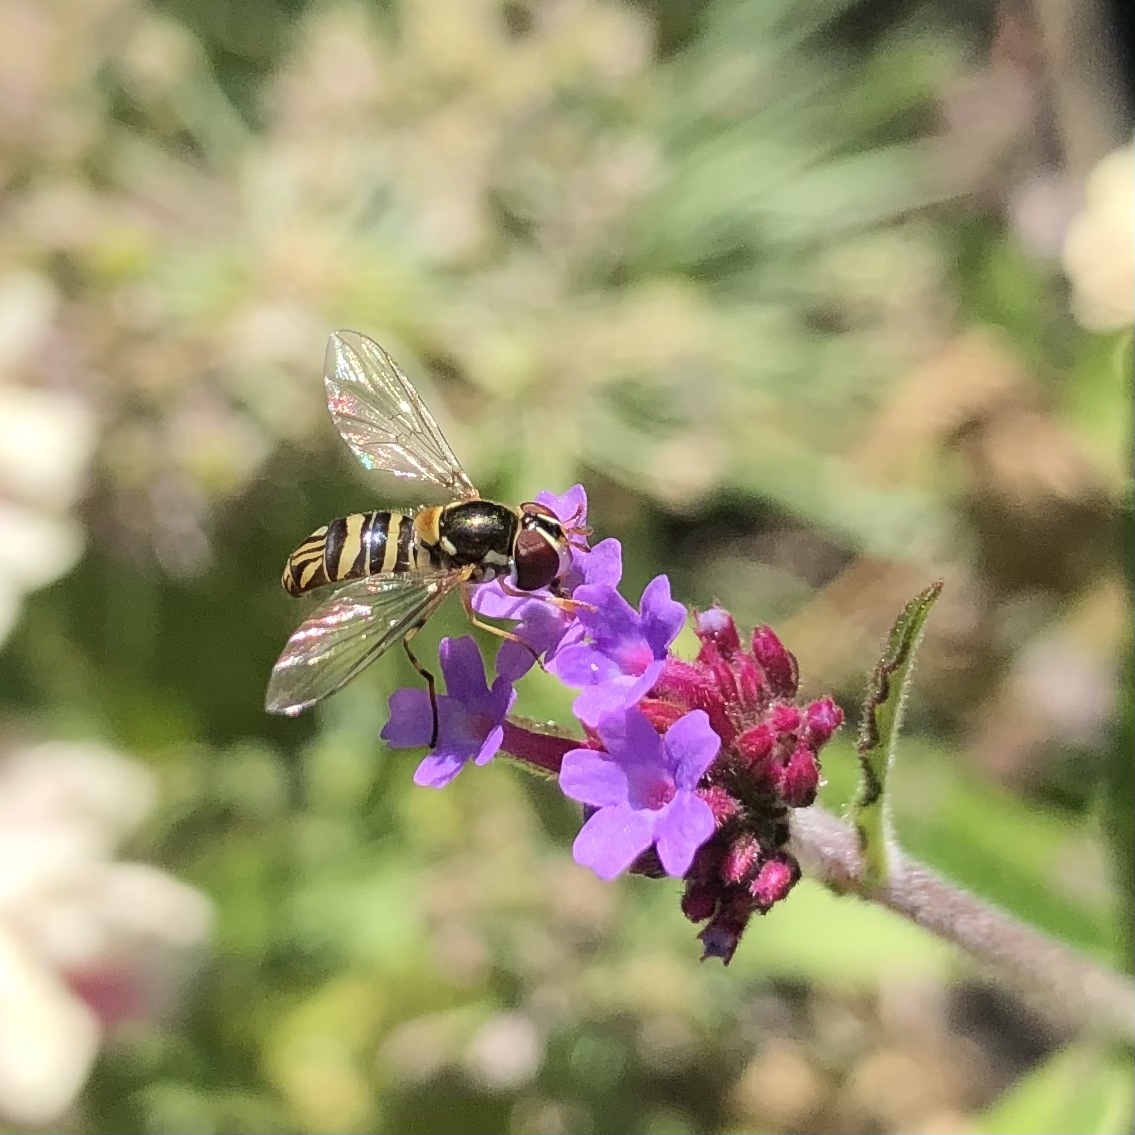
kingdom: Animalia
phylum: Arthropoda
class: Insecta
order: Diptera
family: Syrphidae
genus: Allograpta
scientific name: Allograpta obliqua
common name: Common oblique syrphid
